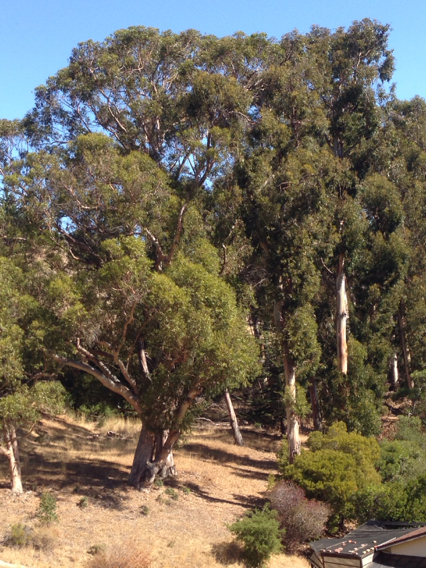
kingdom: Plantae
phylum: Tracheophyta
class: Magnoliopsida
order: Myrtales
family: Myrtaceae
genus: Eucalyptus
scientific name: Eucalyptus globulus
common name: Southern blue-gum
